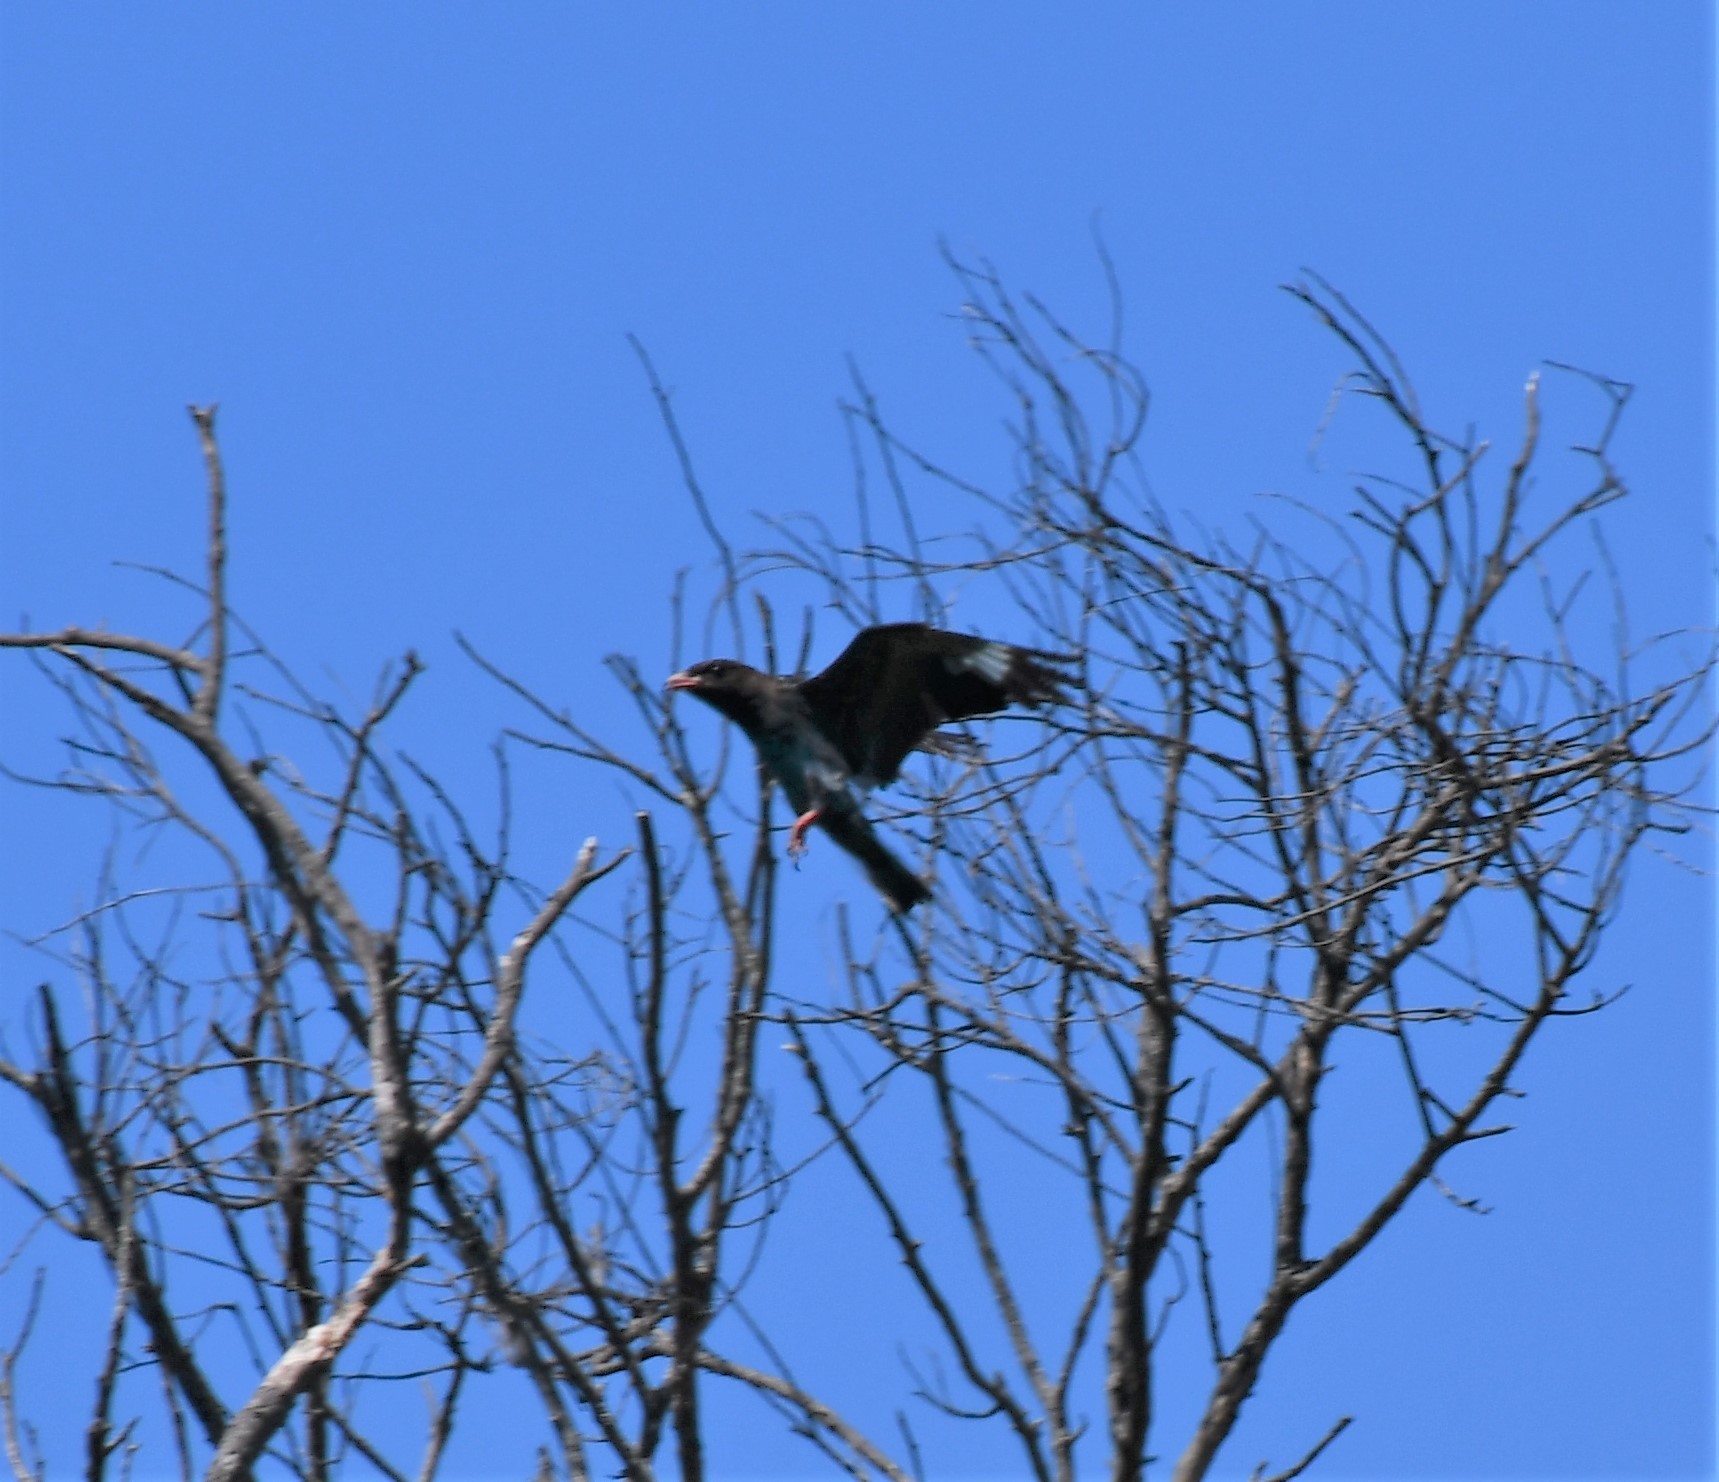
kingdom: Animalia
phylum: Chordata
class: Aves
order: Coraciiformes
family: Coraciidae
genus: Eurystomus
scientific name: Eurystomus orientalis
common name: Oriental dollarbird
